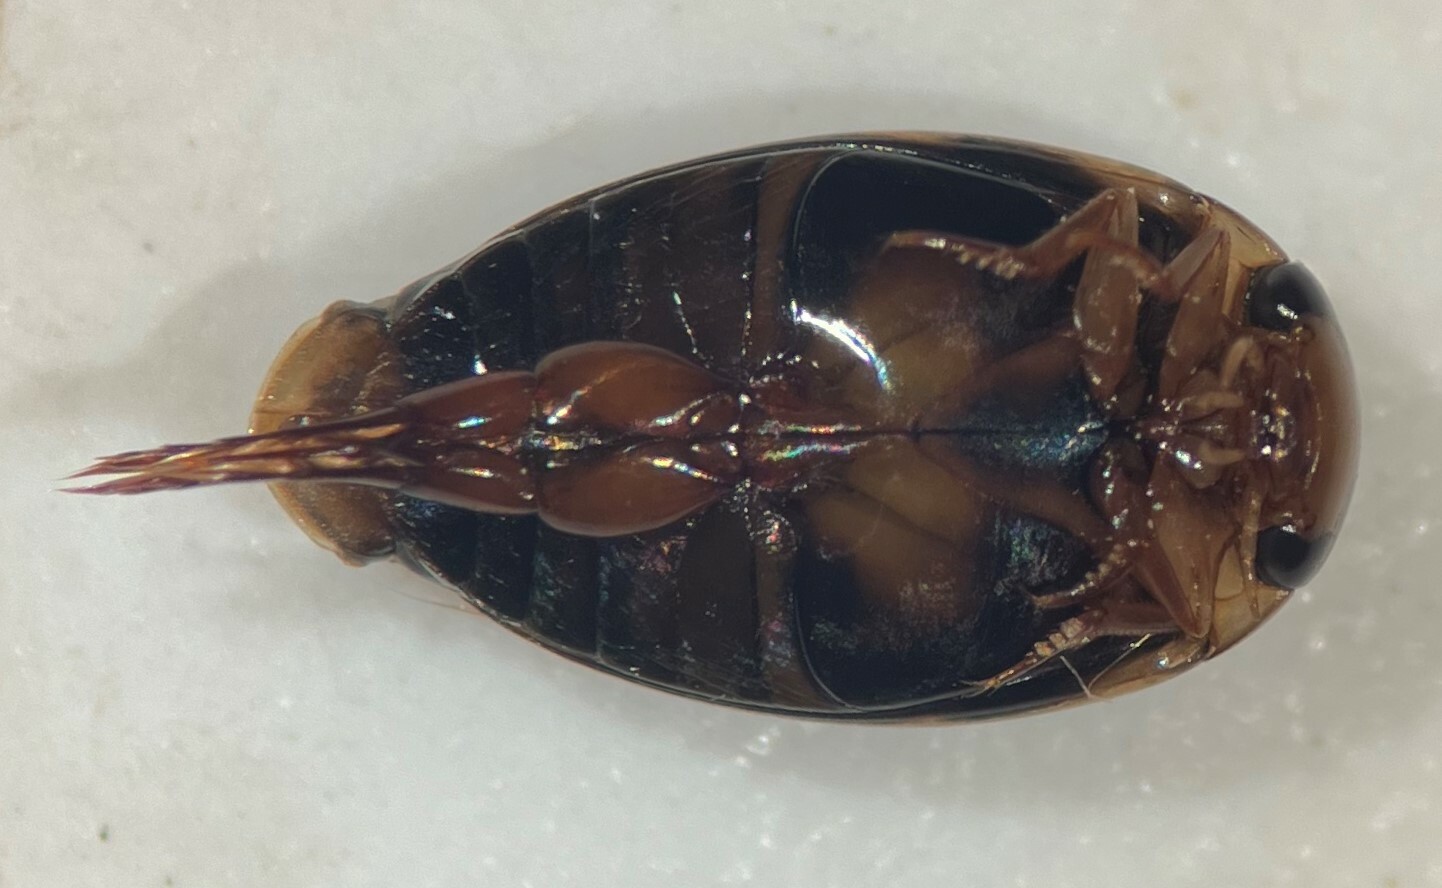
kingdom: Animalia
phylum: Arthropoda
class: Insecta
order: Coleoptera
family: Dytiscidae
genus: Laccophilus
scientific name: Laccophilus oscillator
